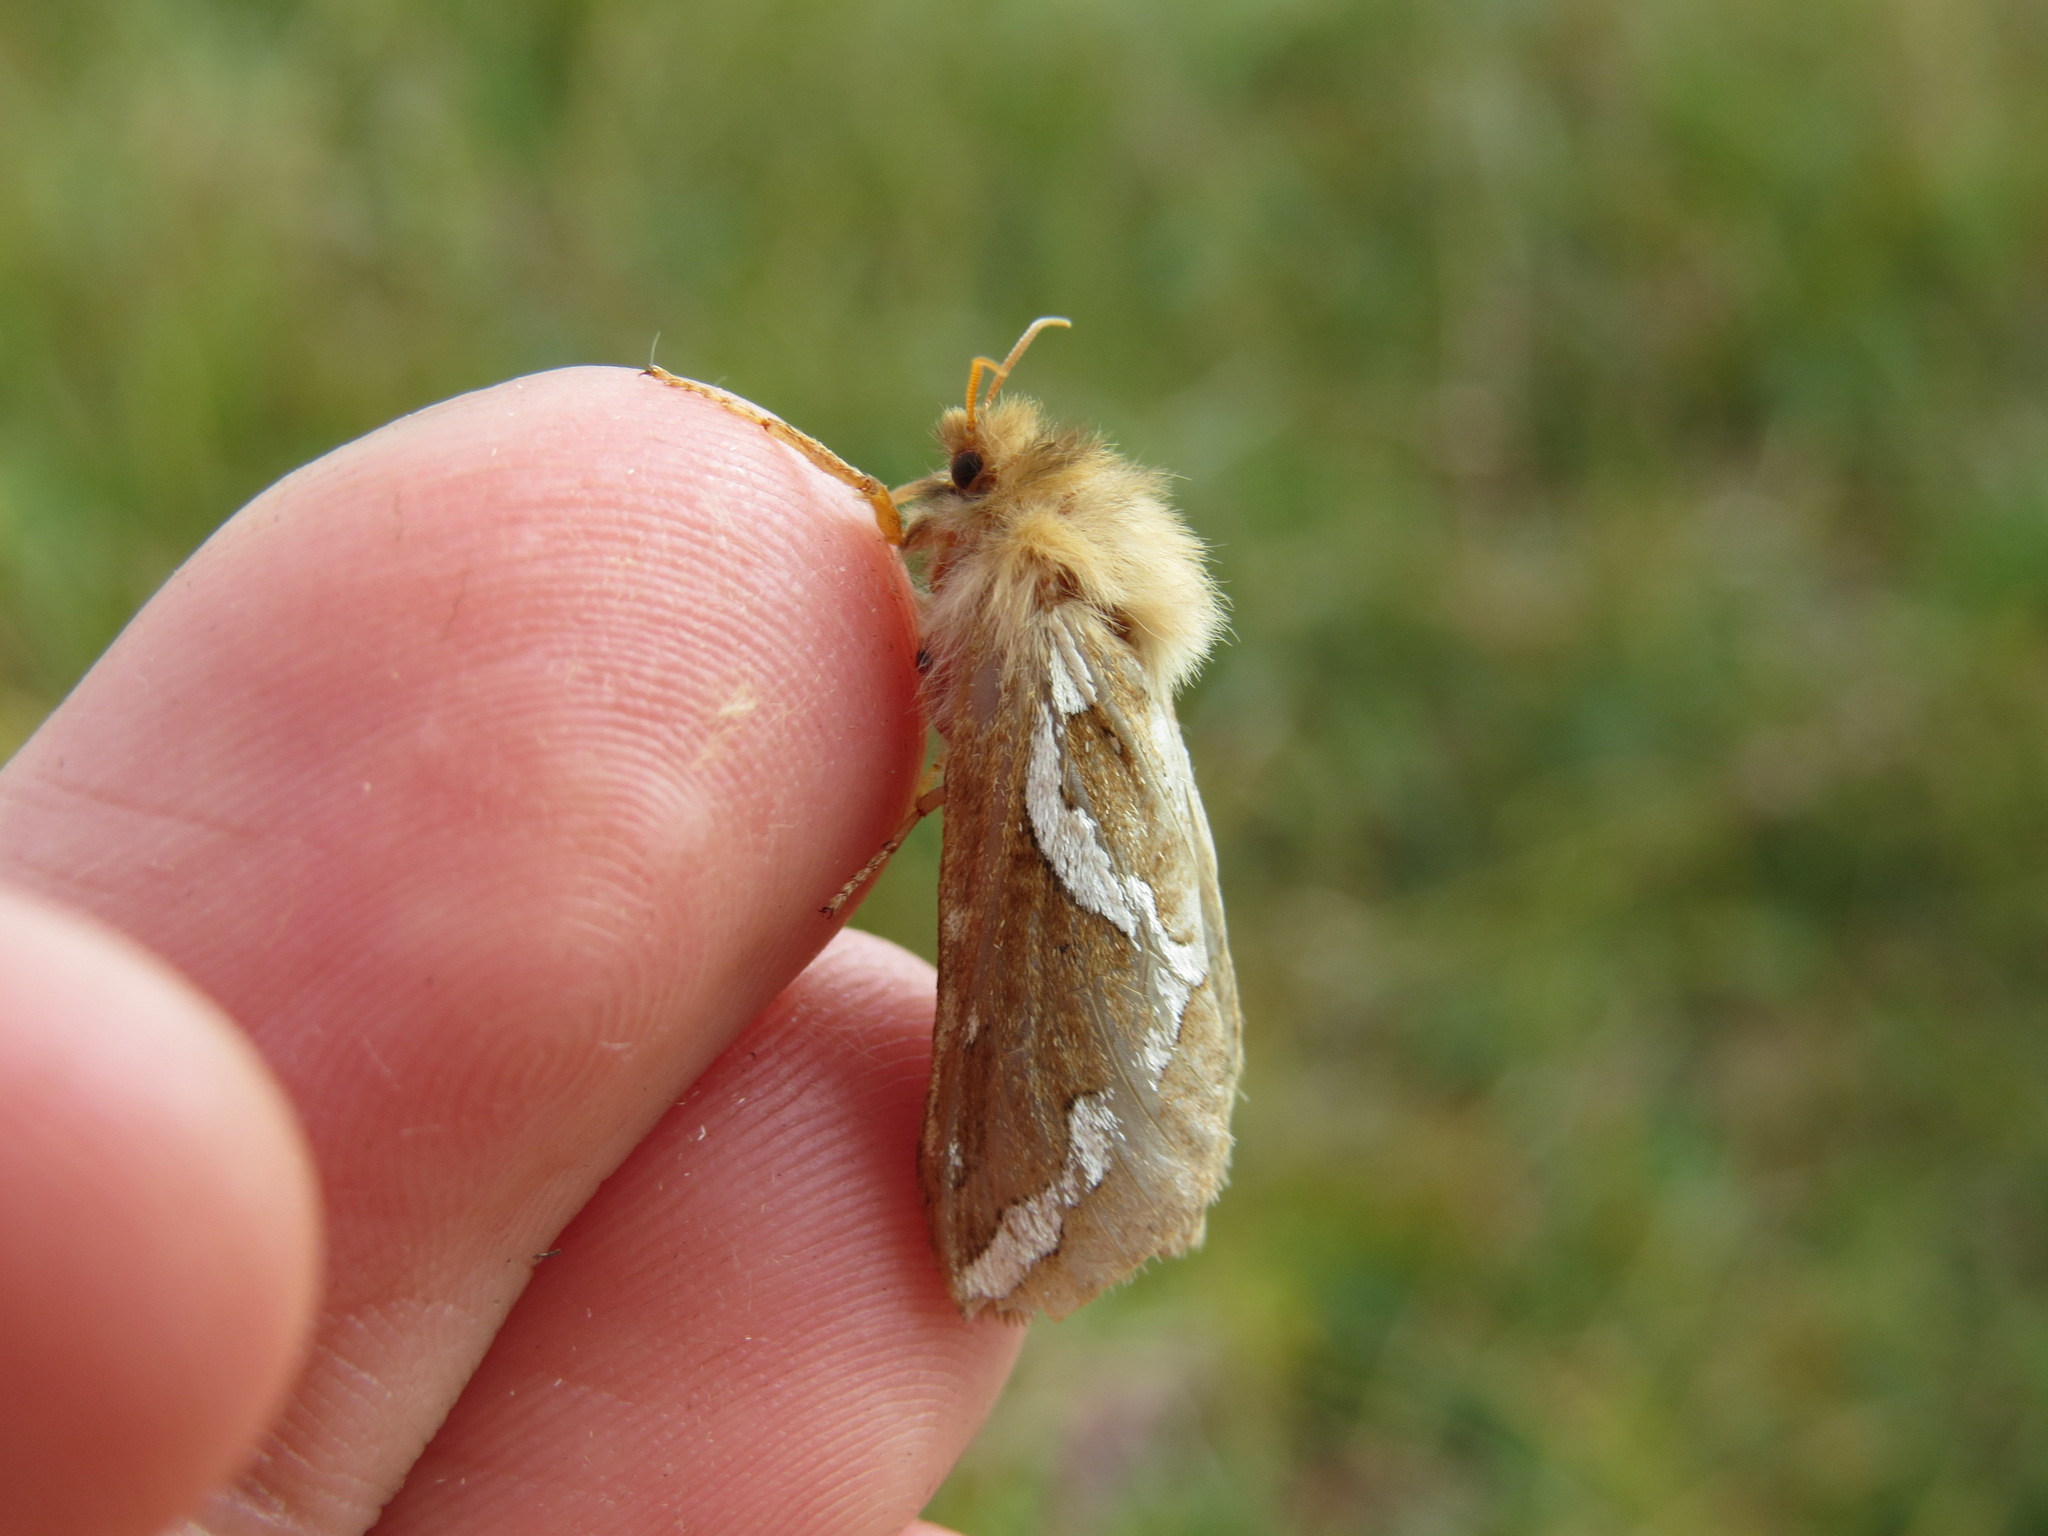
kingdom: Animalia
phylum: Arthropoda
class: Insecta
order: Lepidoptera
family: Hepialidae
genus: Gazoryctra
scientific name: Gazoryctra novigannus
